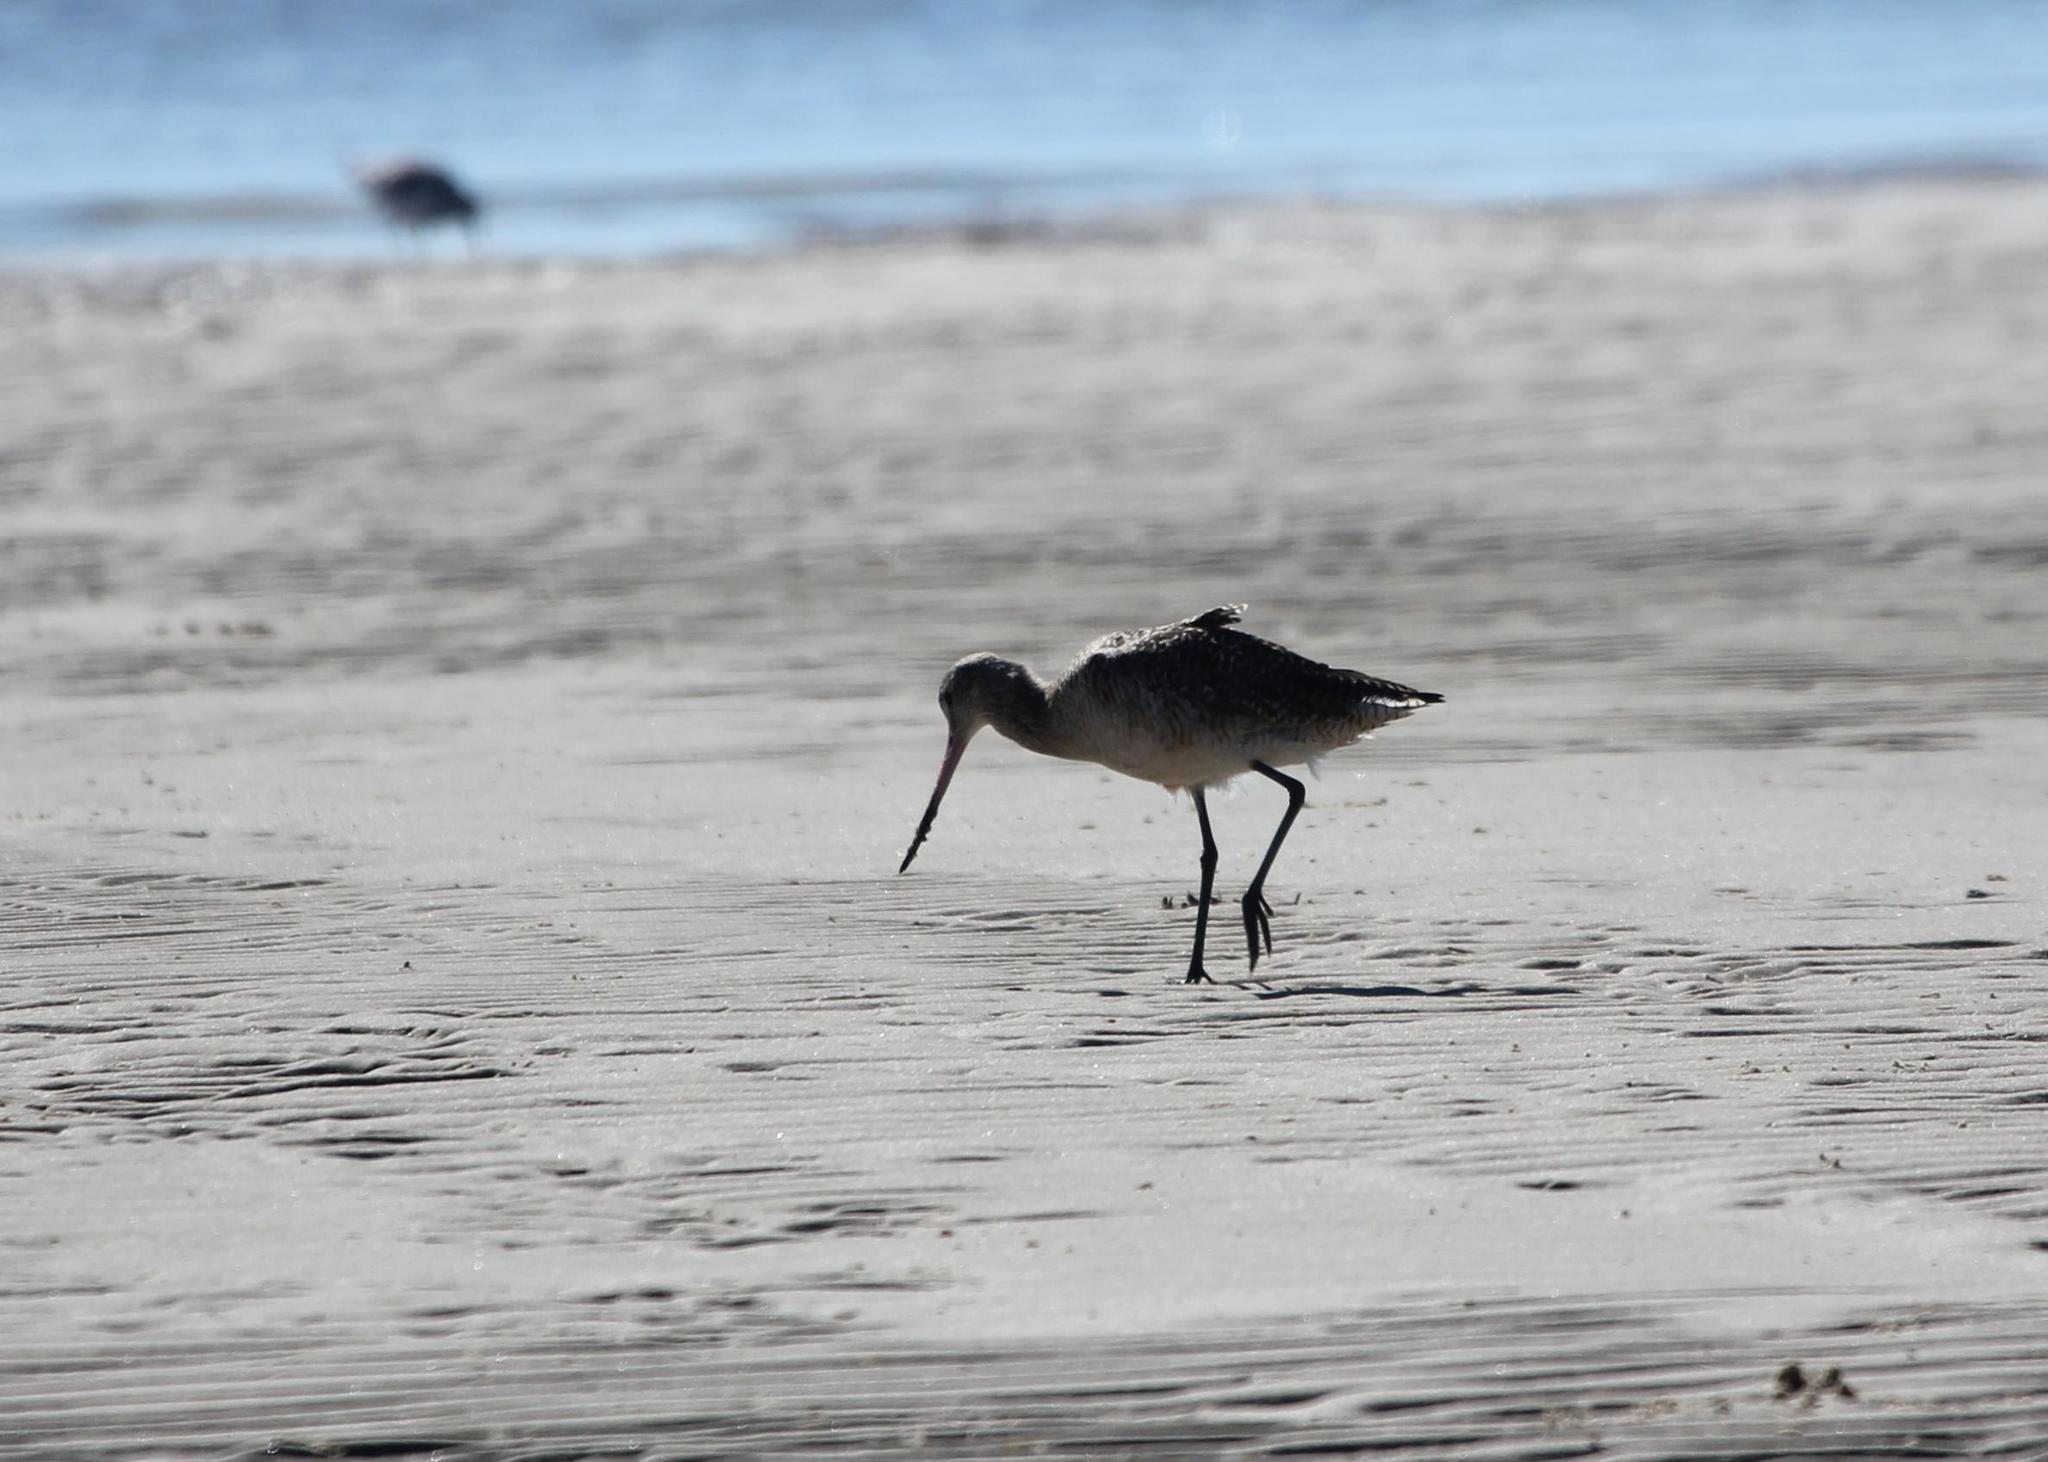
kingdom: Animalia
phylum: Chordata
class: Aves
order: Charadriiformes
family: Scolopacidae
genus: Limosa
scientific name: Limosa fedoa
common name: Marbled godwit
